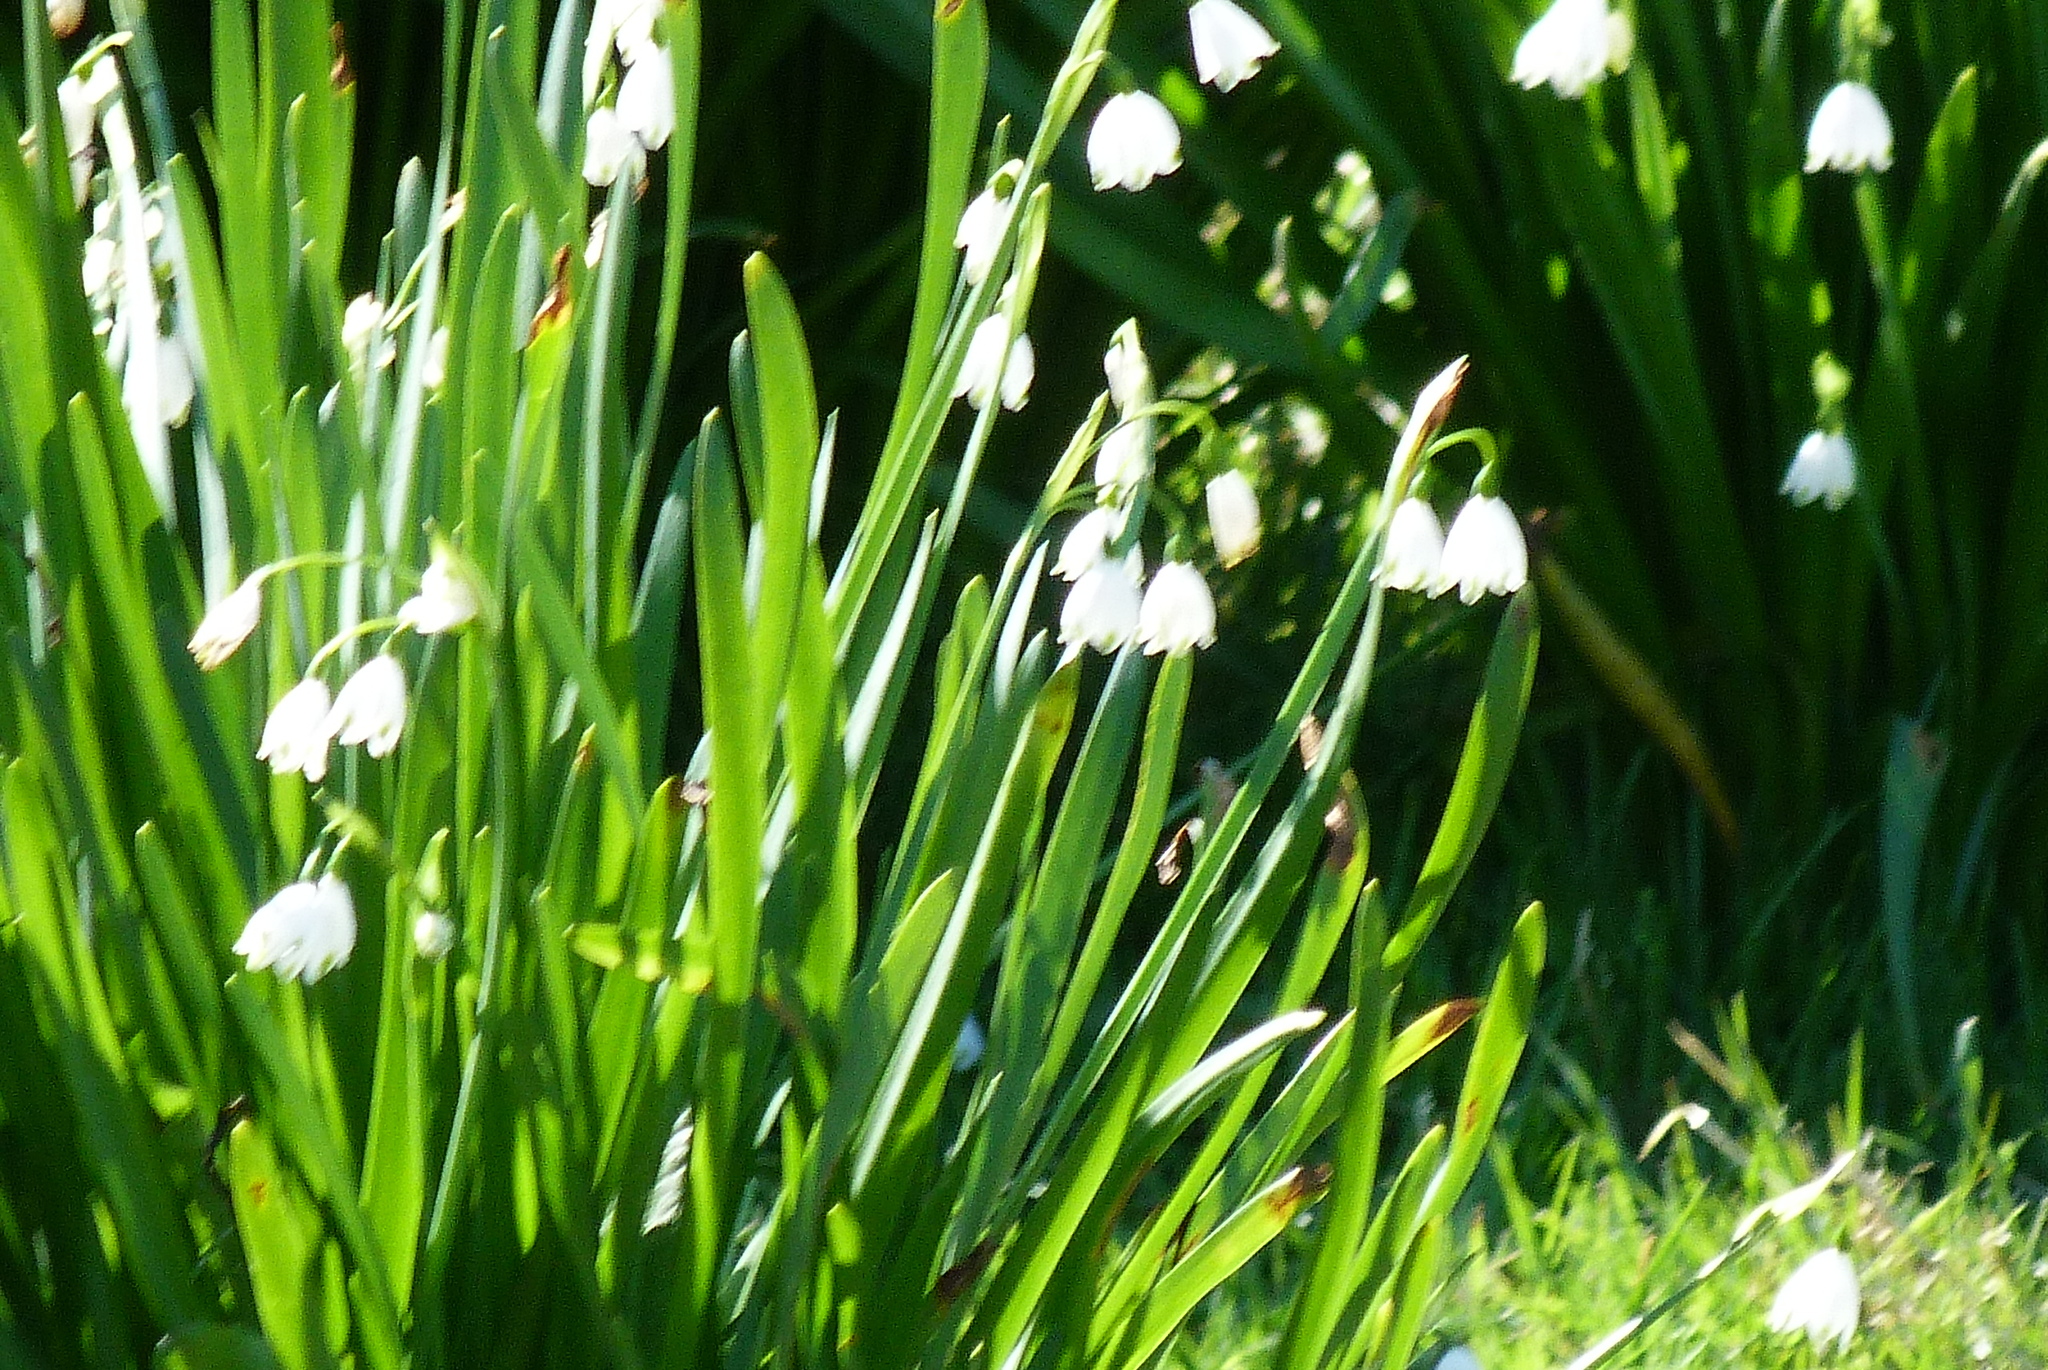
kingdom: Plantae
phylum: Tracheophyta
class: Liliopsida
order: Asparagales
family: Amaryllidaceae
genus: Leucojum
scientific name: Leucojum aestivum
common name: Summer snowflake
